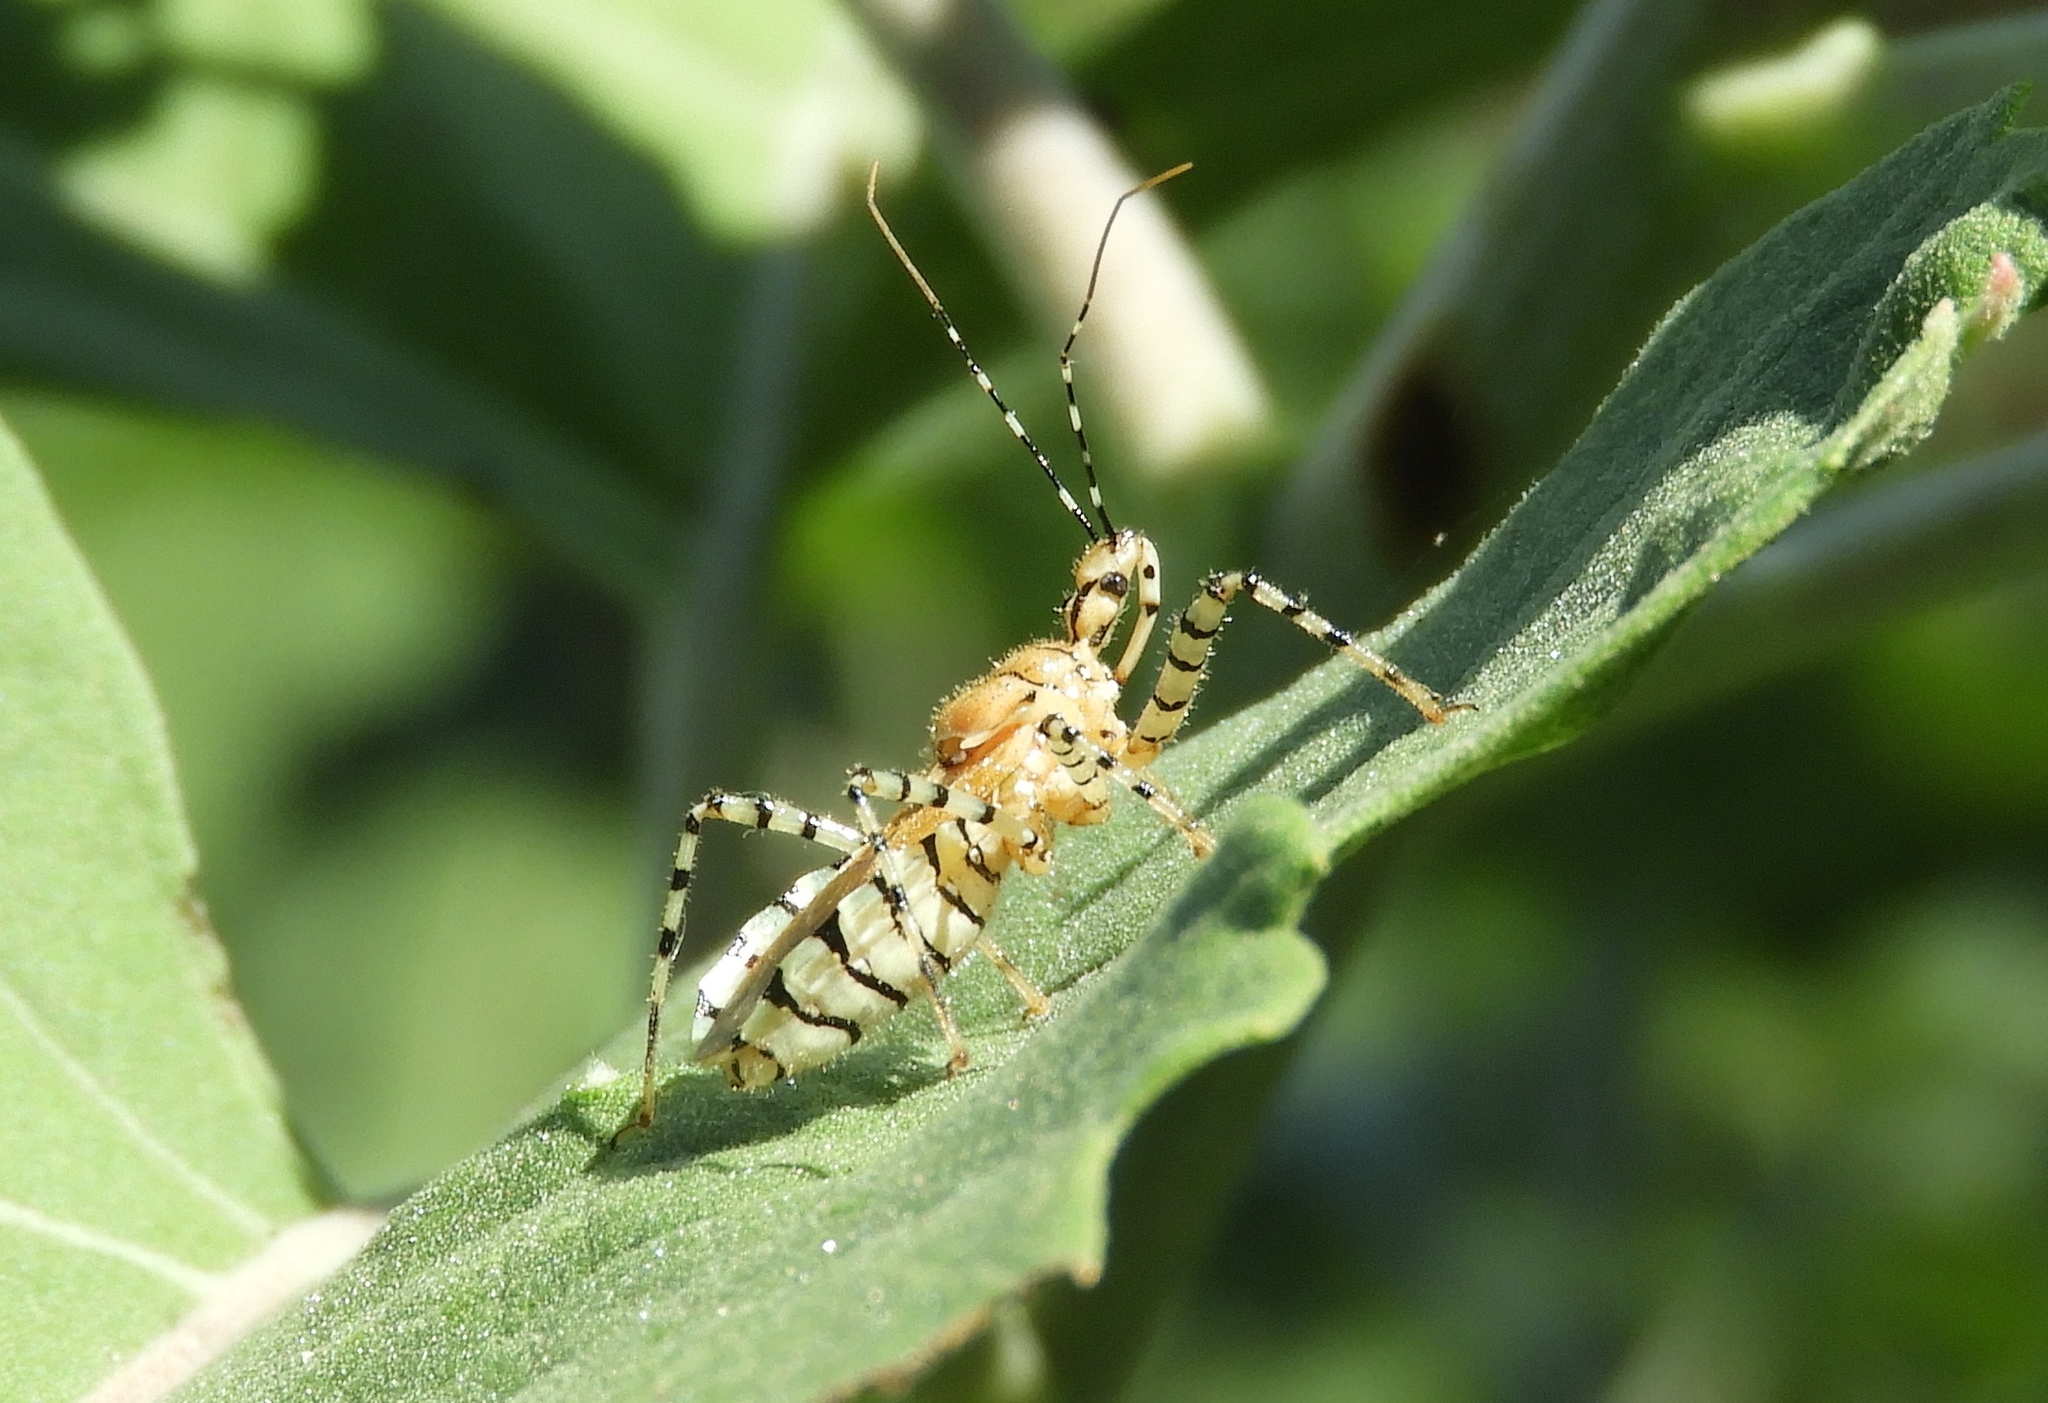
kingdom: Animalia
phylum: Arthropoda
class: Insecta
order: Hemiptera
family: Reduviidae
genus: Pselliopus
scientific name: Pselliopus
